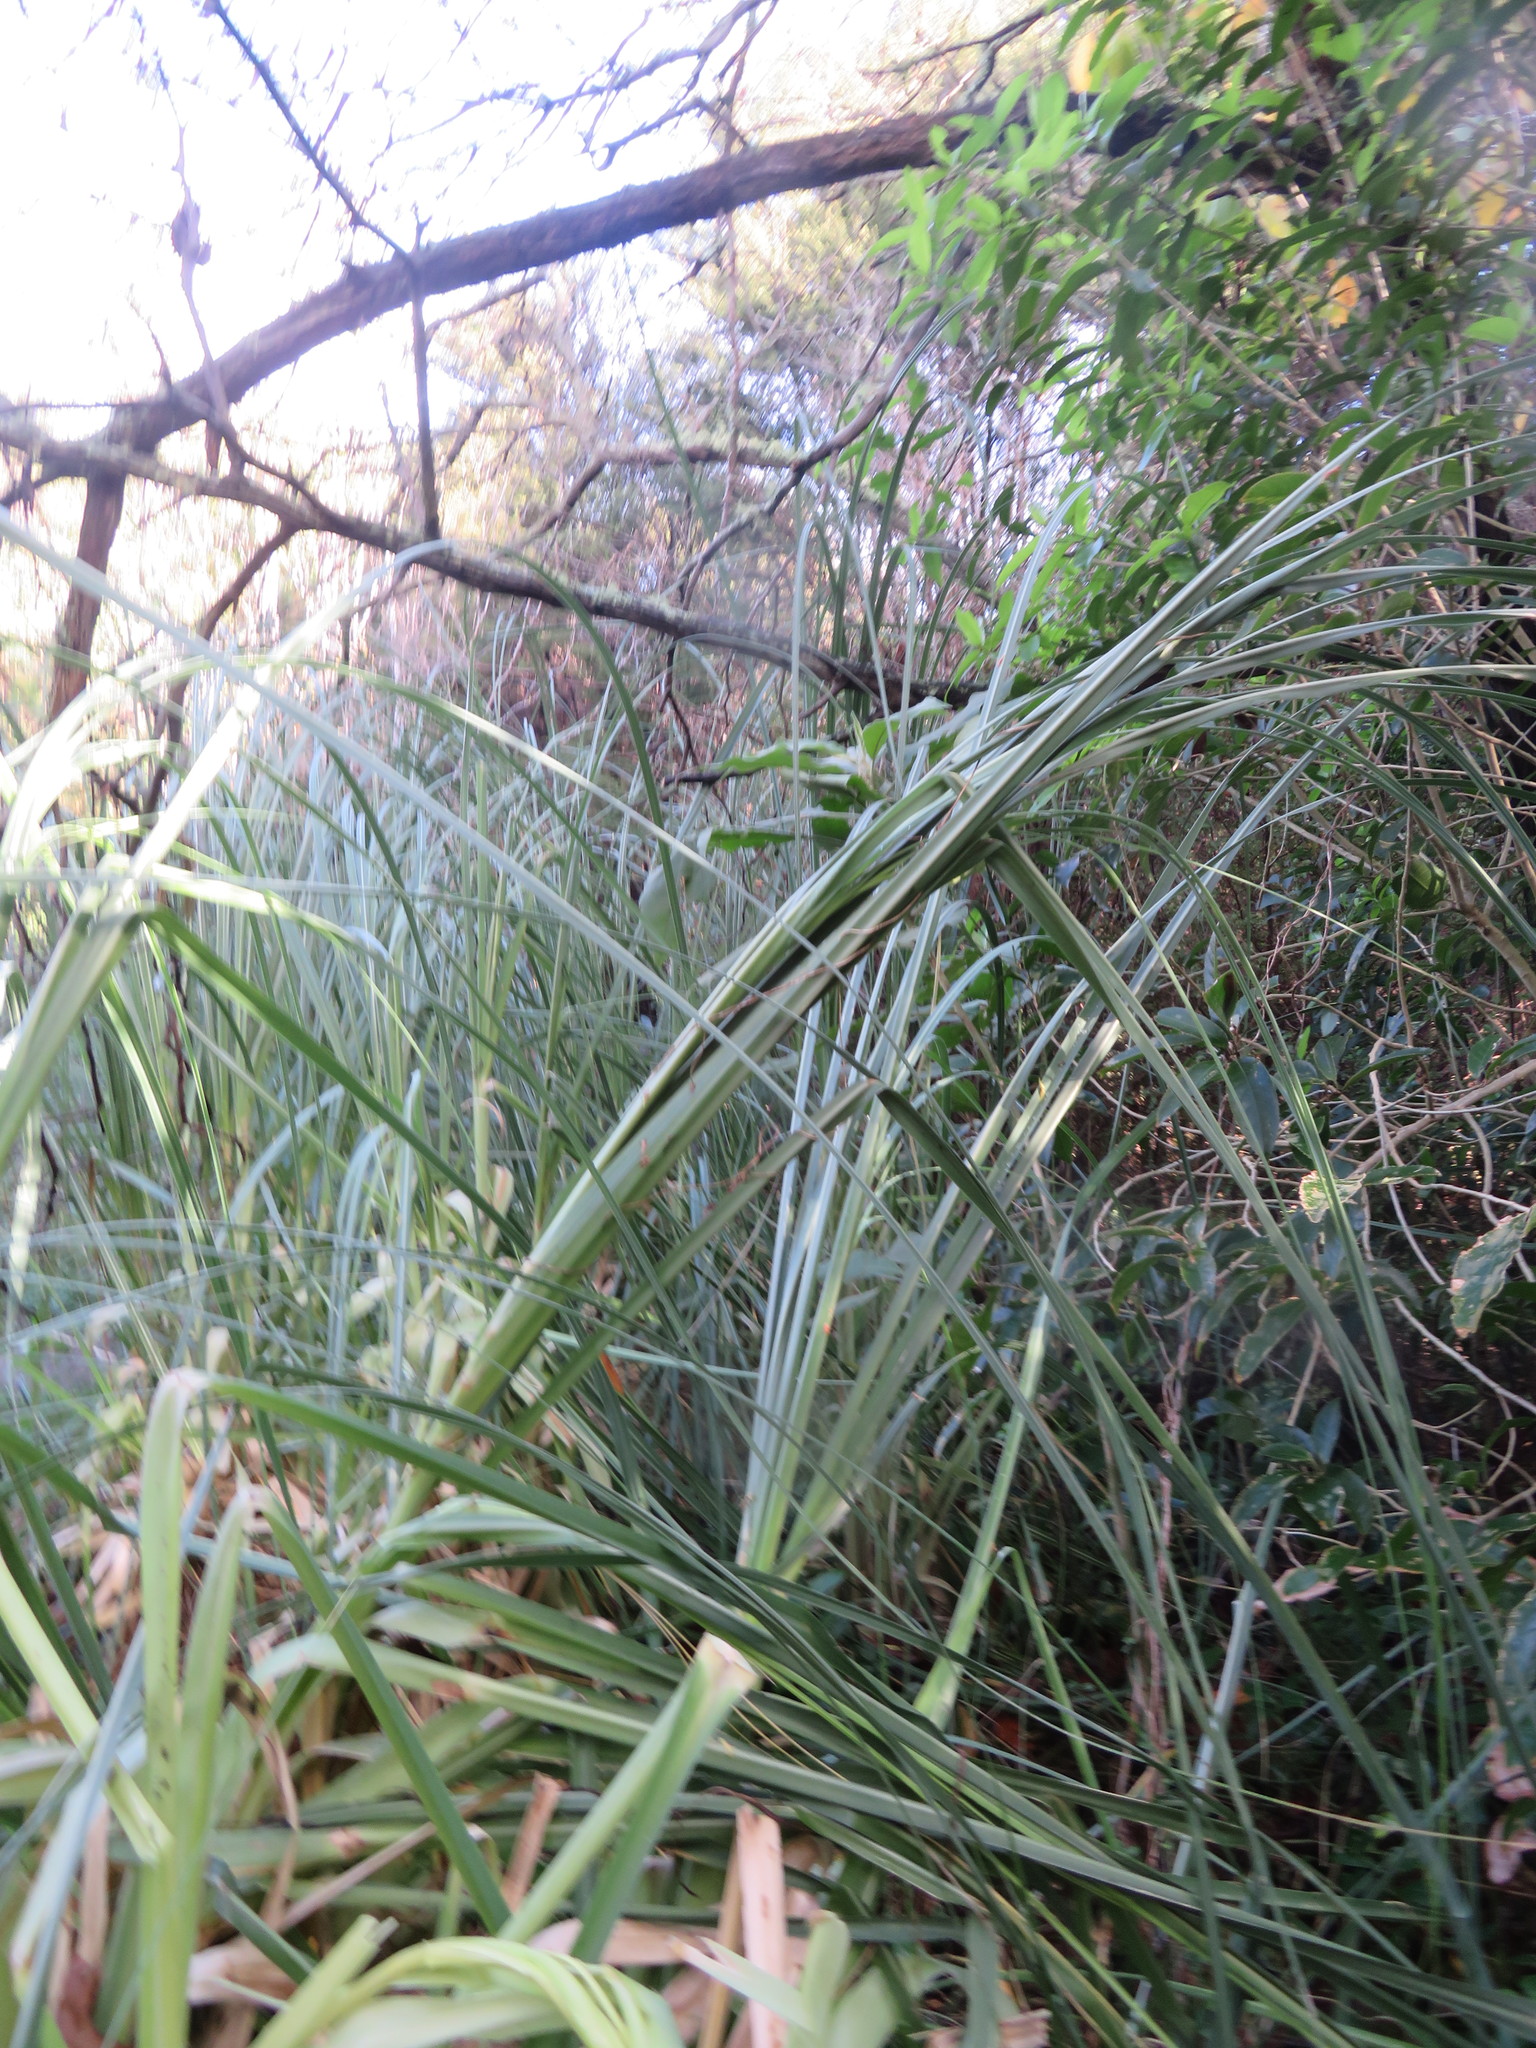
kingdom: Plantae
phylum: Tracheophyta
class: Liliopsida
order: Poales
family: Poaceae
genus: Cortaderia
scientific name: Cortaderia selloana
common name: Uruguayan pampas grass
